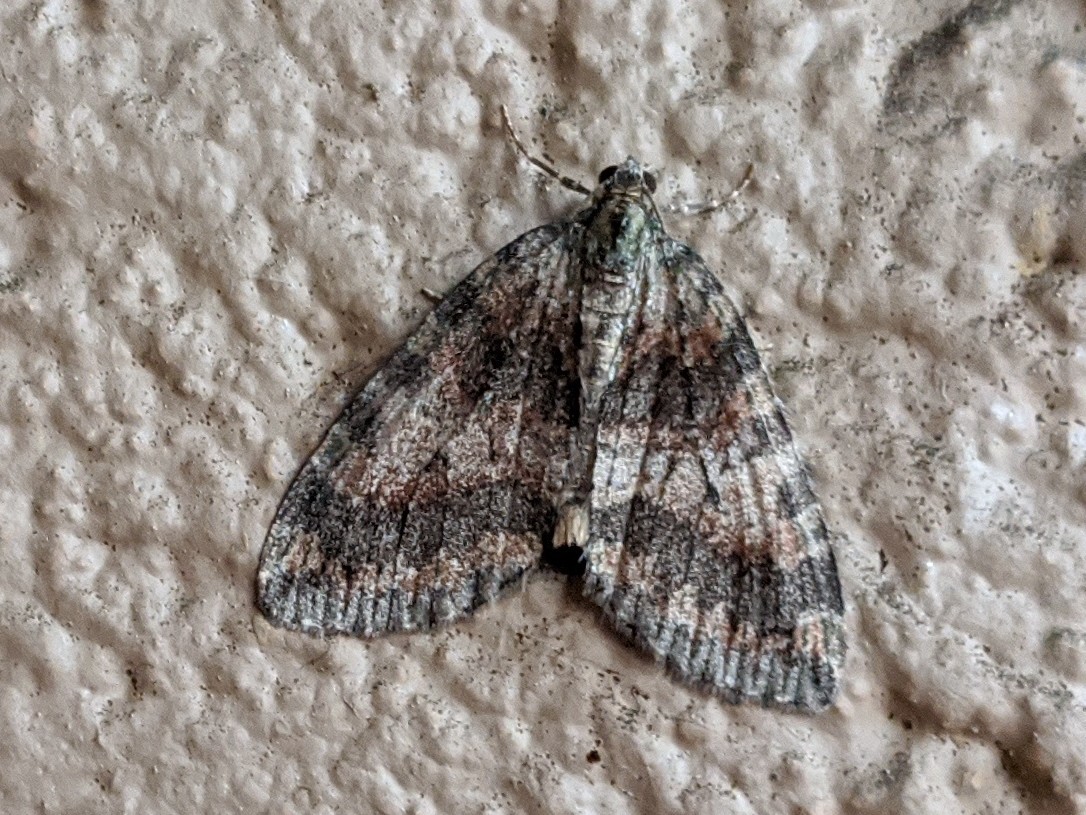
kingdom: Animalia
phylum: Arthropoda
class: Insecta
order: Lepidoptera
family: Geometridae
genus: Hydriomena
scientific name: Hydriomena nubilofasciata
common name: Oak winter highflier moth
